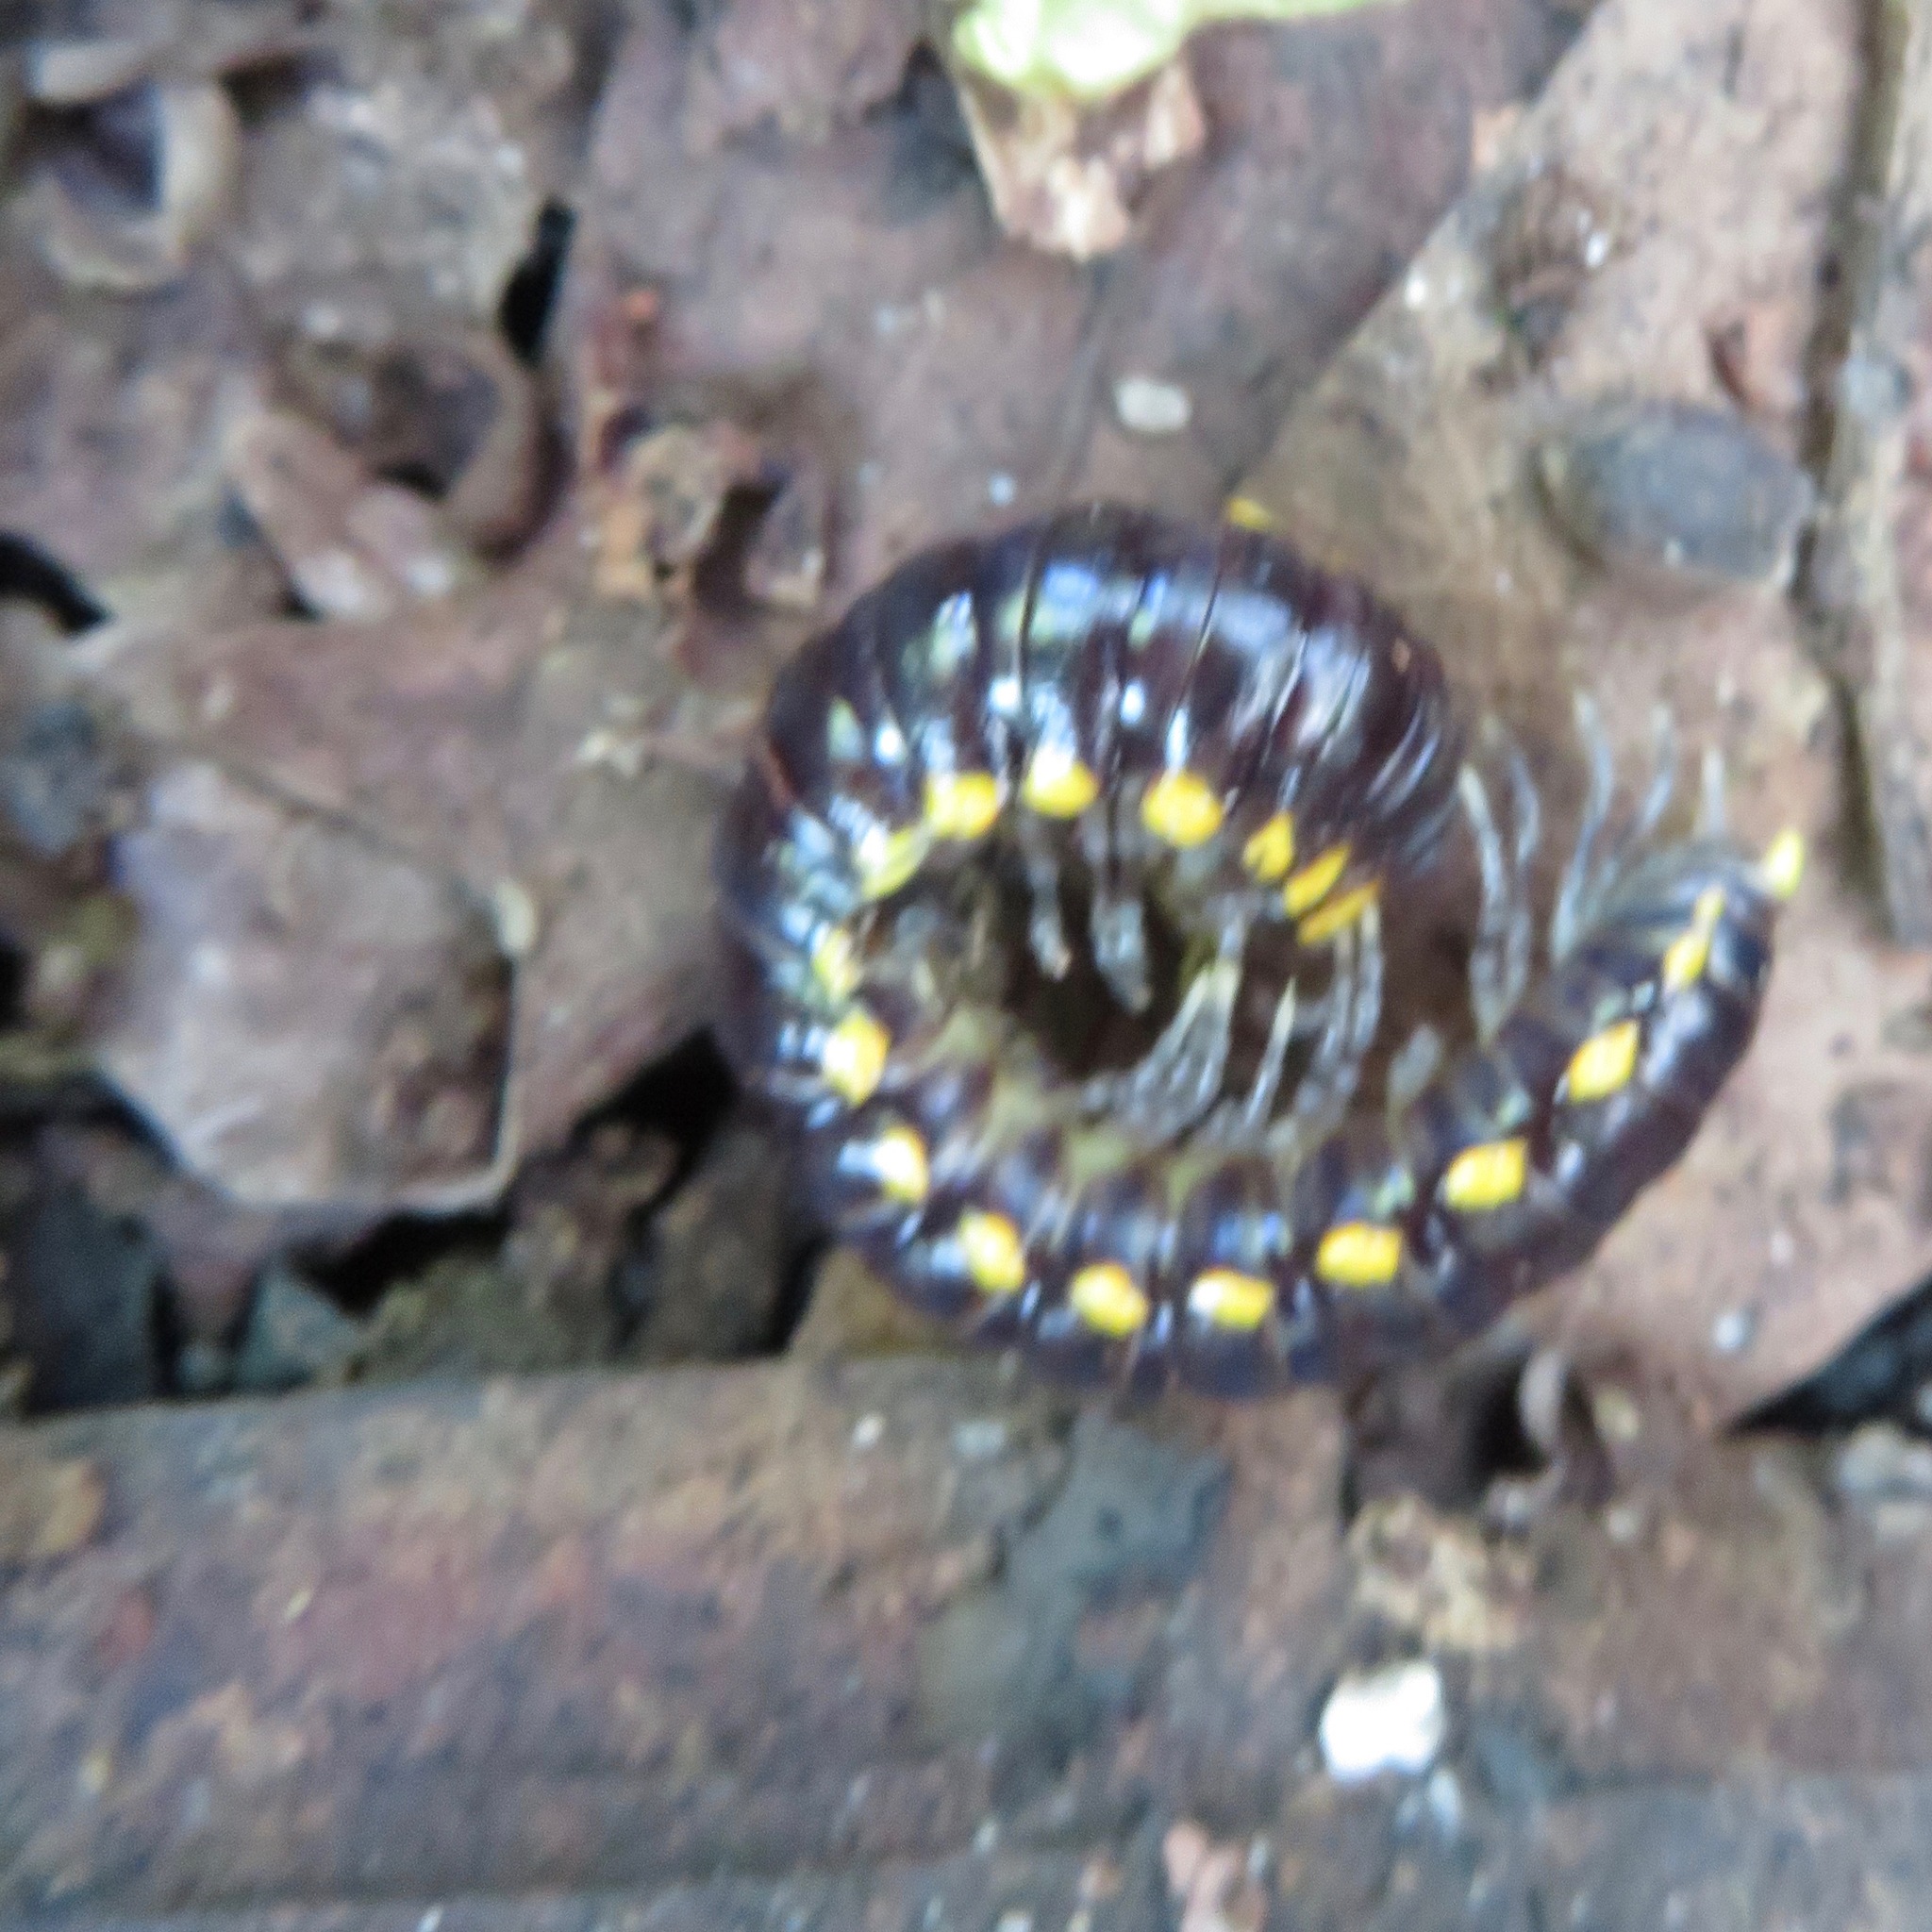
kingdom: Animalia
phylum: Arthropoda
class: Diplopoda
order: Polydesmida
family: Xystodesmidae
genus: Harpaphe
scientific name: Harpaphe haydeniana
